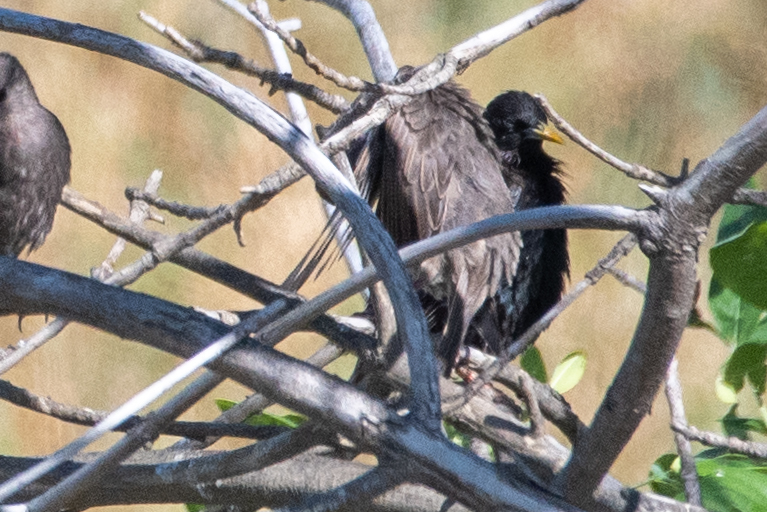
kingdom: Animalia
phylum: Chordata
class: Aves
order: Passeriformes
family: Sturnidae
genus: Sturnus
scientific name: Sturnus vulgaris
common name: Common starling
